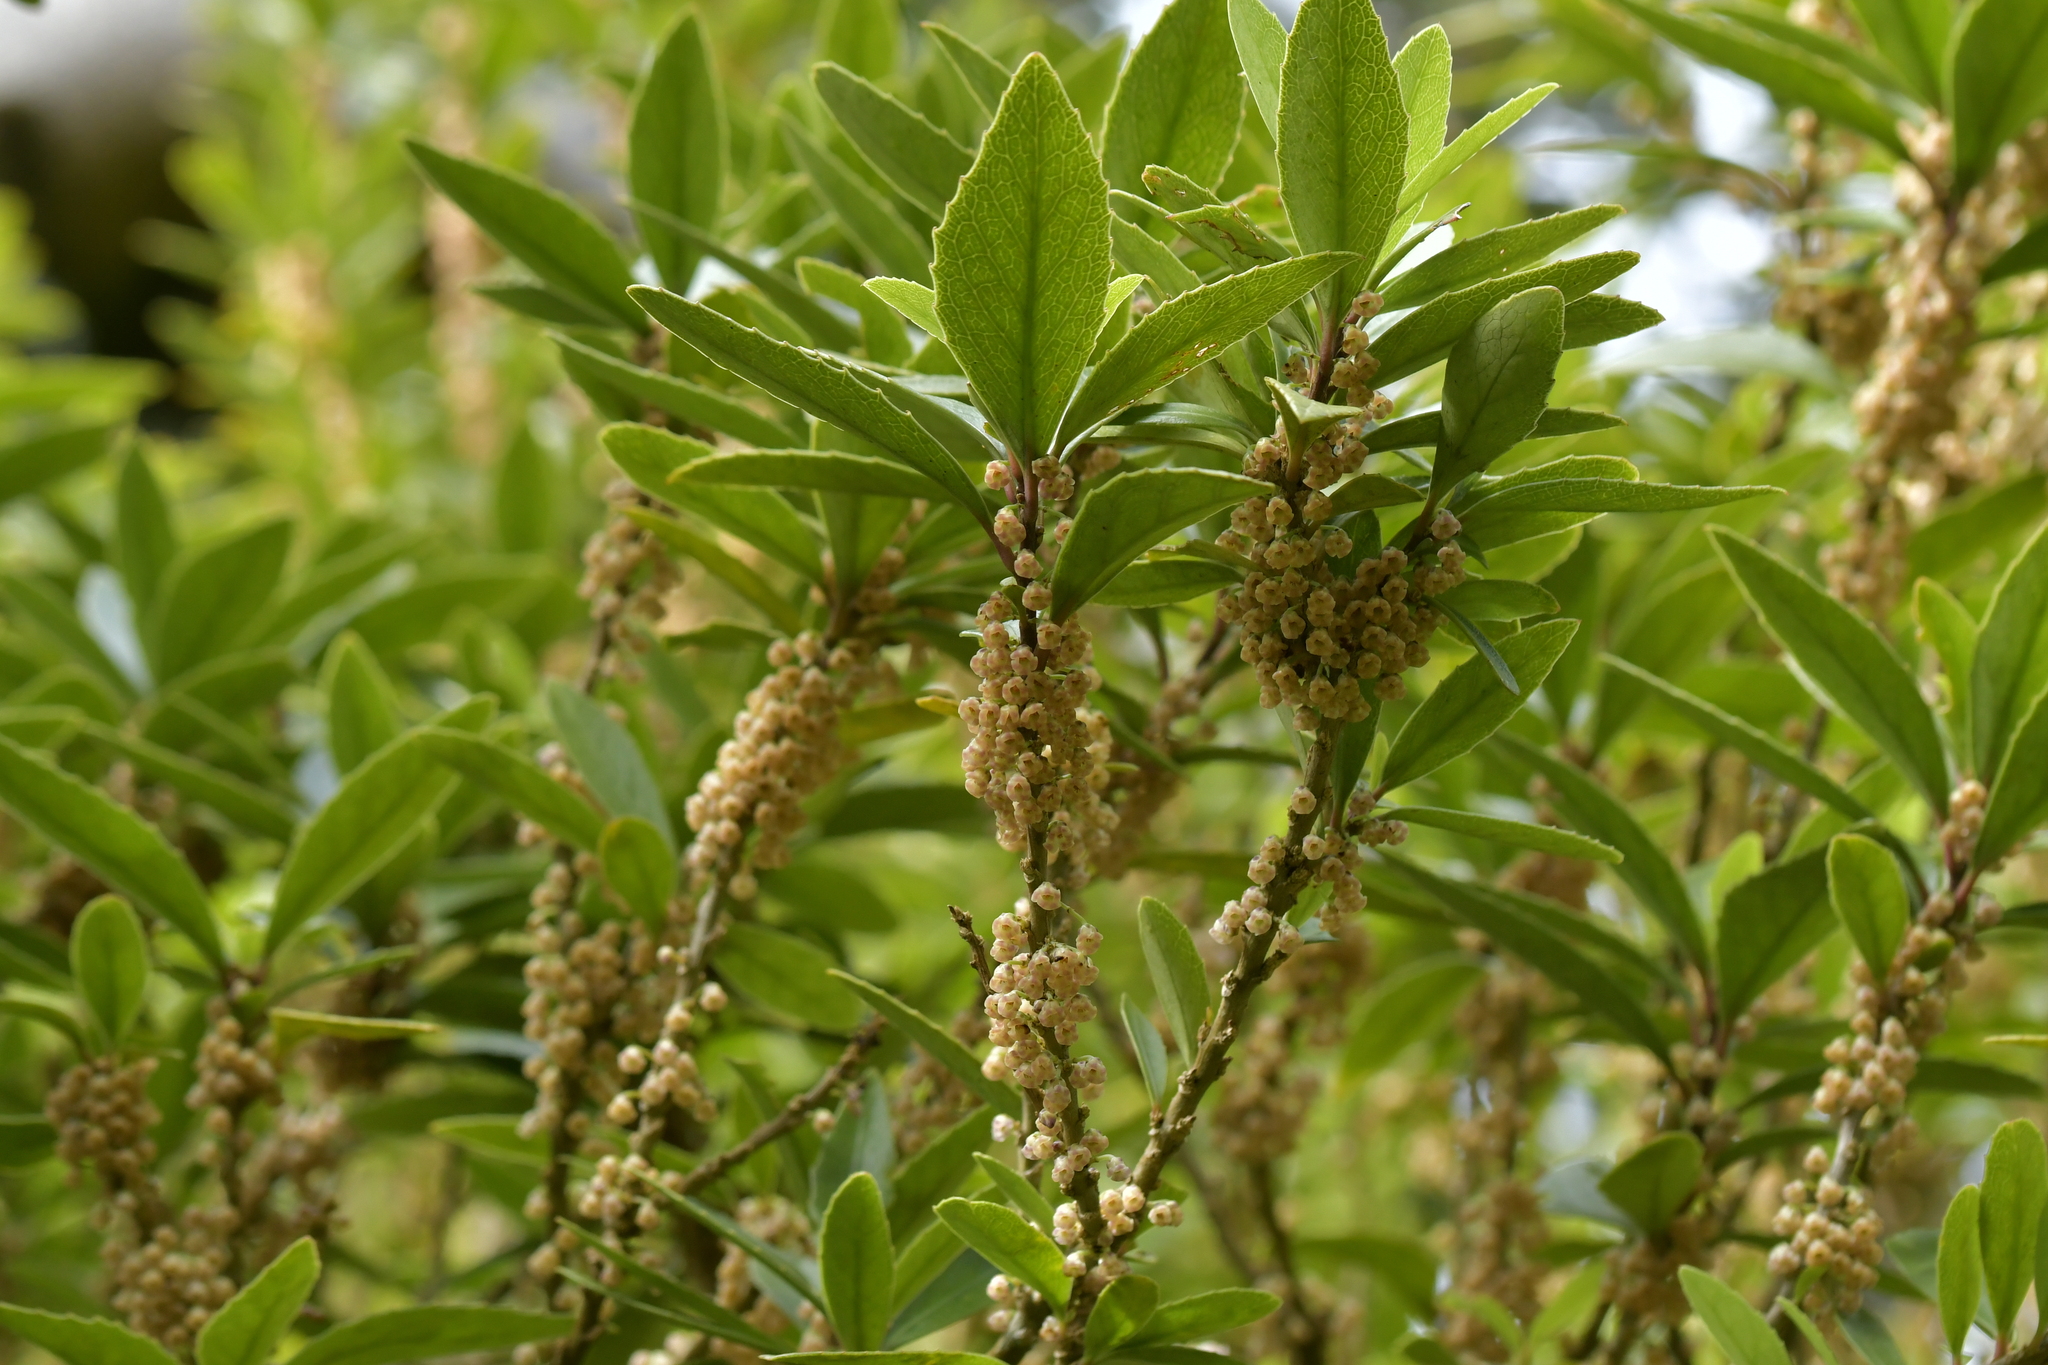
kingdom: Plantae
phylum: Tracheophyta
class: Magnoliopsida
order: Malpighiales
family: Violaceae
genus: Melicytus
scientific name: Melicytus chathamicus
